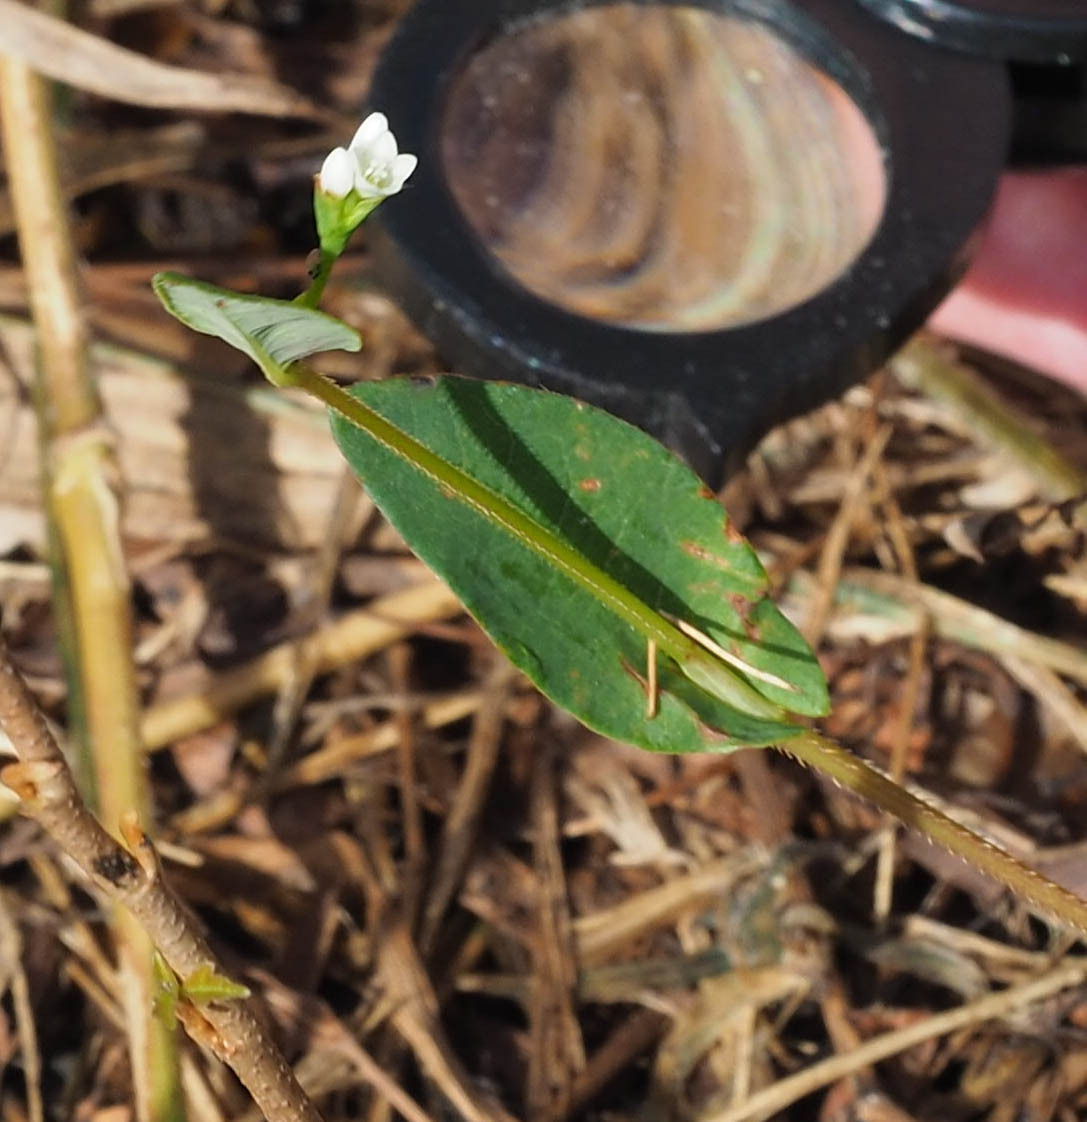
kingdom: Plantae
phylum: Tracheophyta
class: Magnoliopsida
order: Caryophyllales
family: Polygonaceae
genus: Persicaria
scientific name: Persicaria sagittata
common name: American tearthumb
